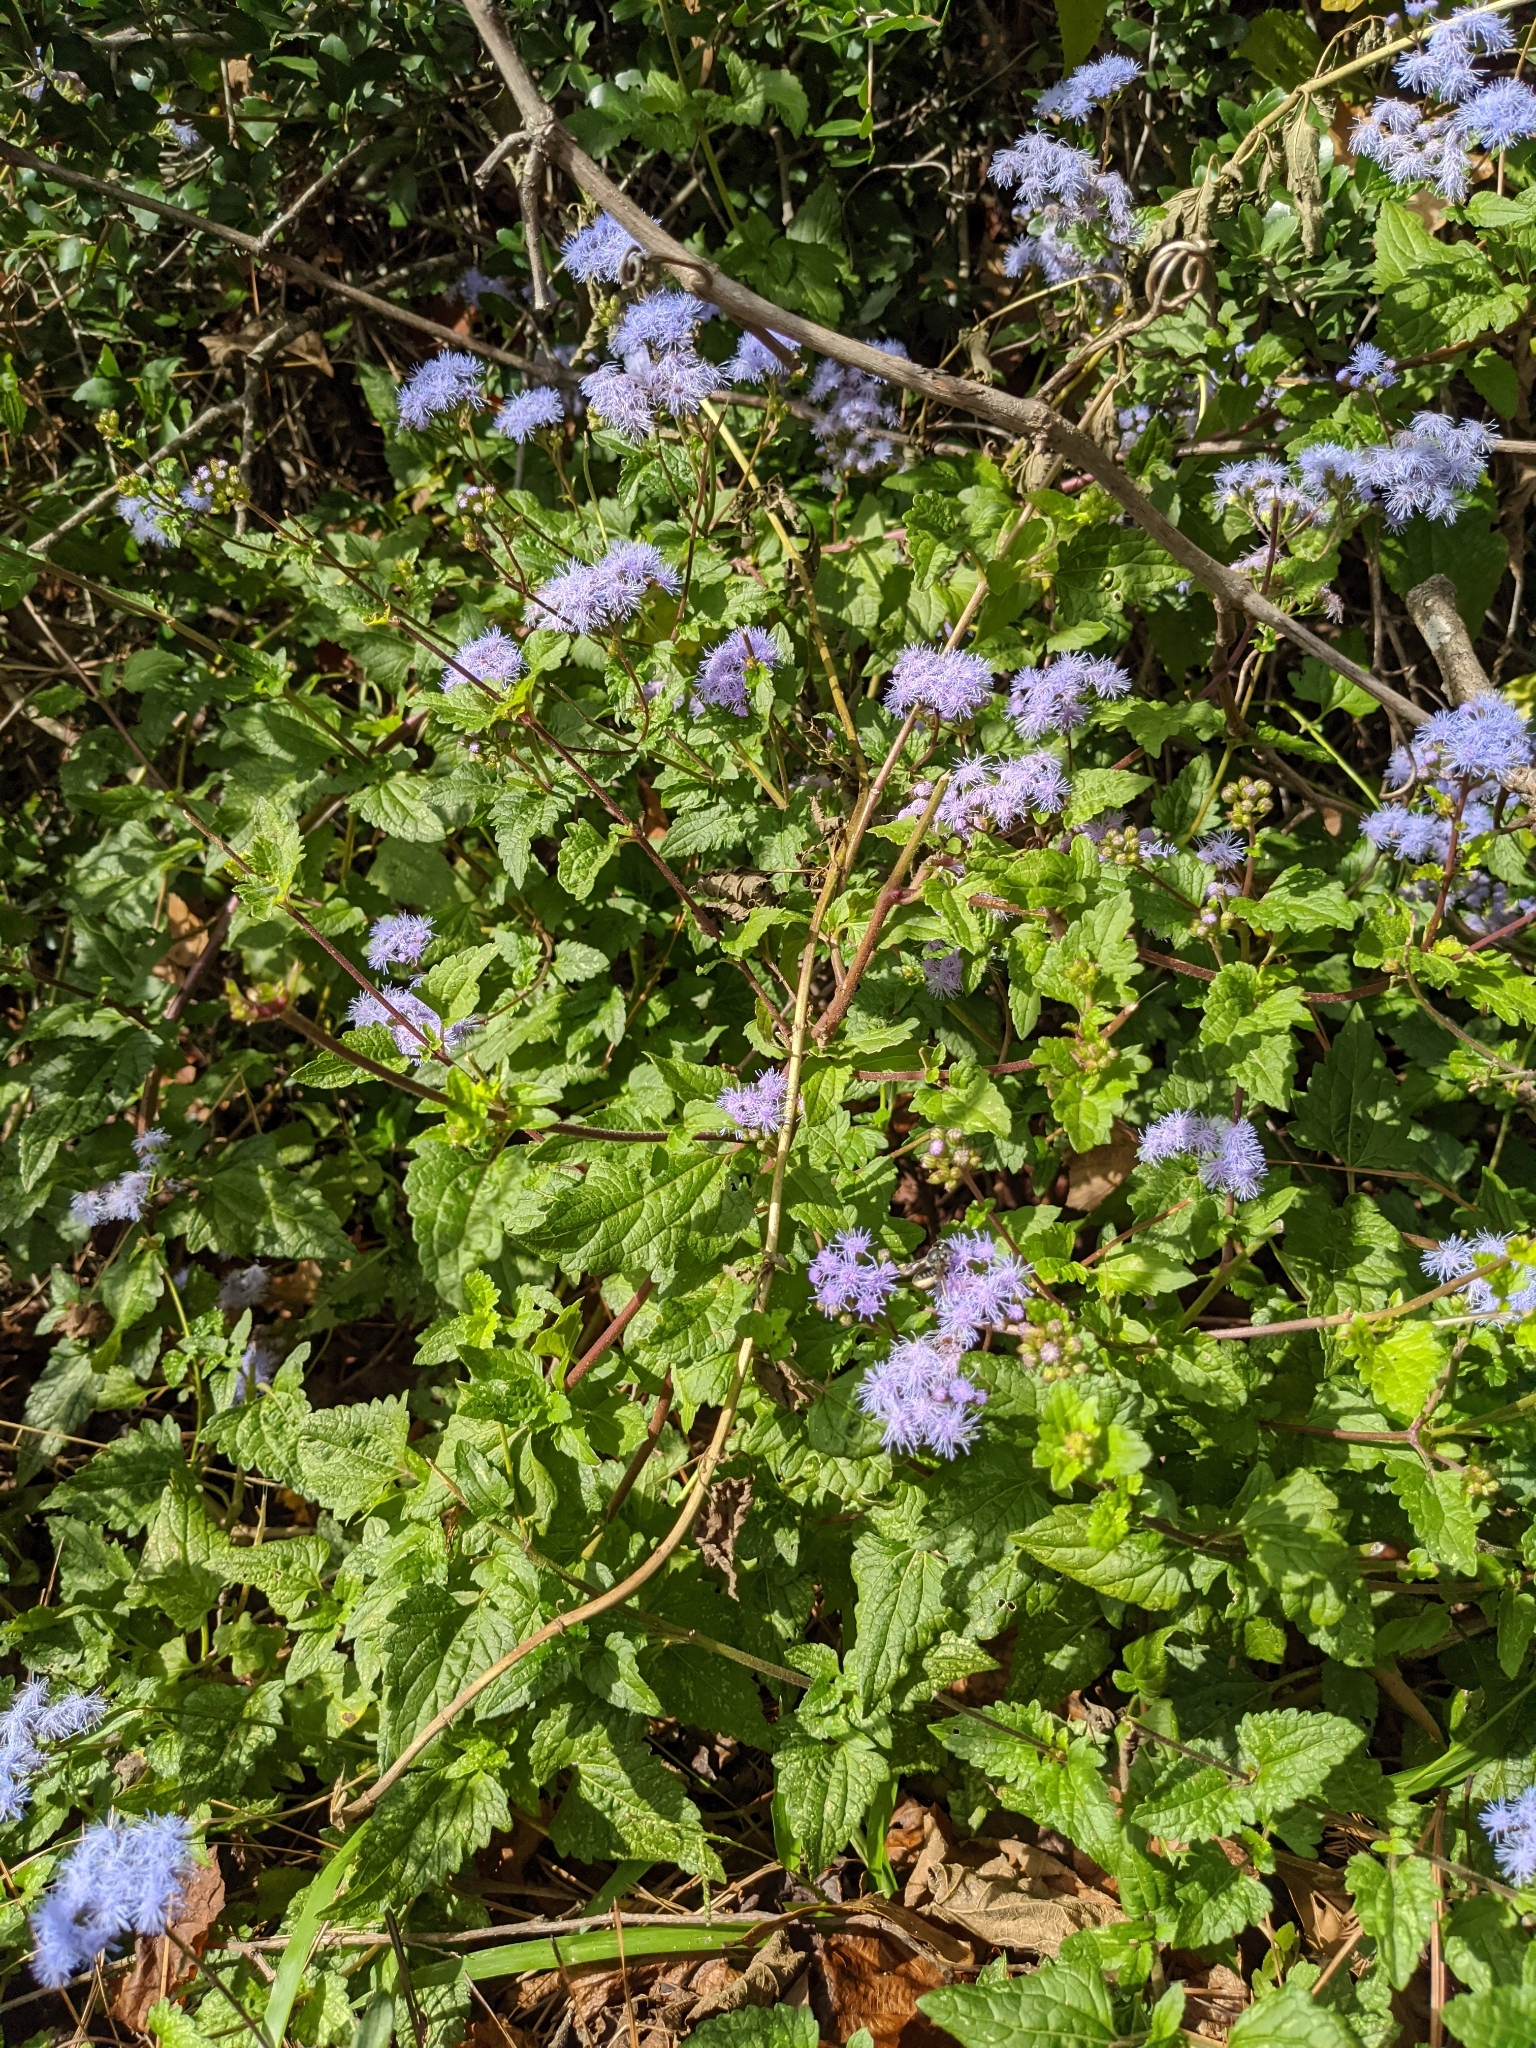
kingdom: Plantae
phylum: Tracheophyta
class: Magnoliopsida
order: Asterales
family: Asteraceae
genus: Conoclinium
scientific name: Conoclinium coelestinum
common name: Blue mistflower
